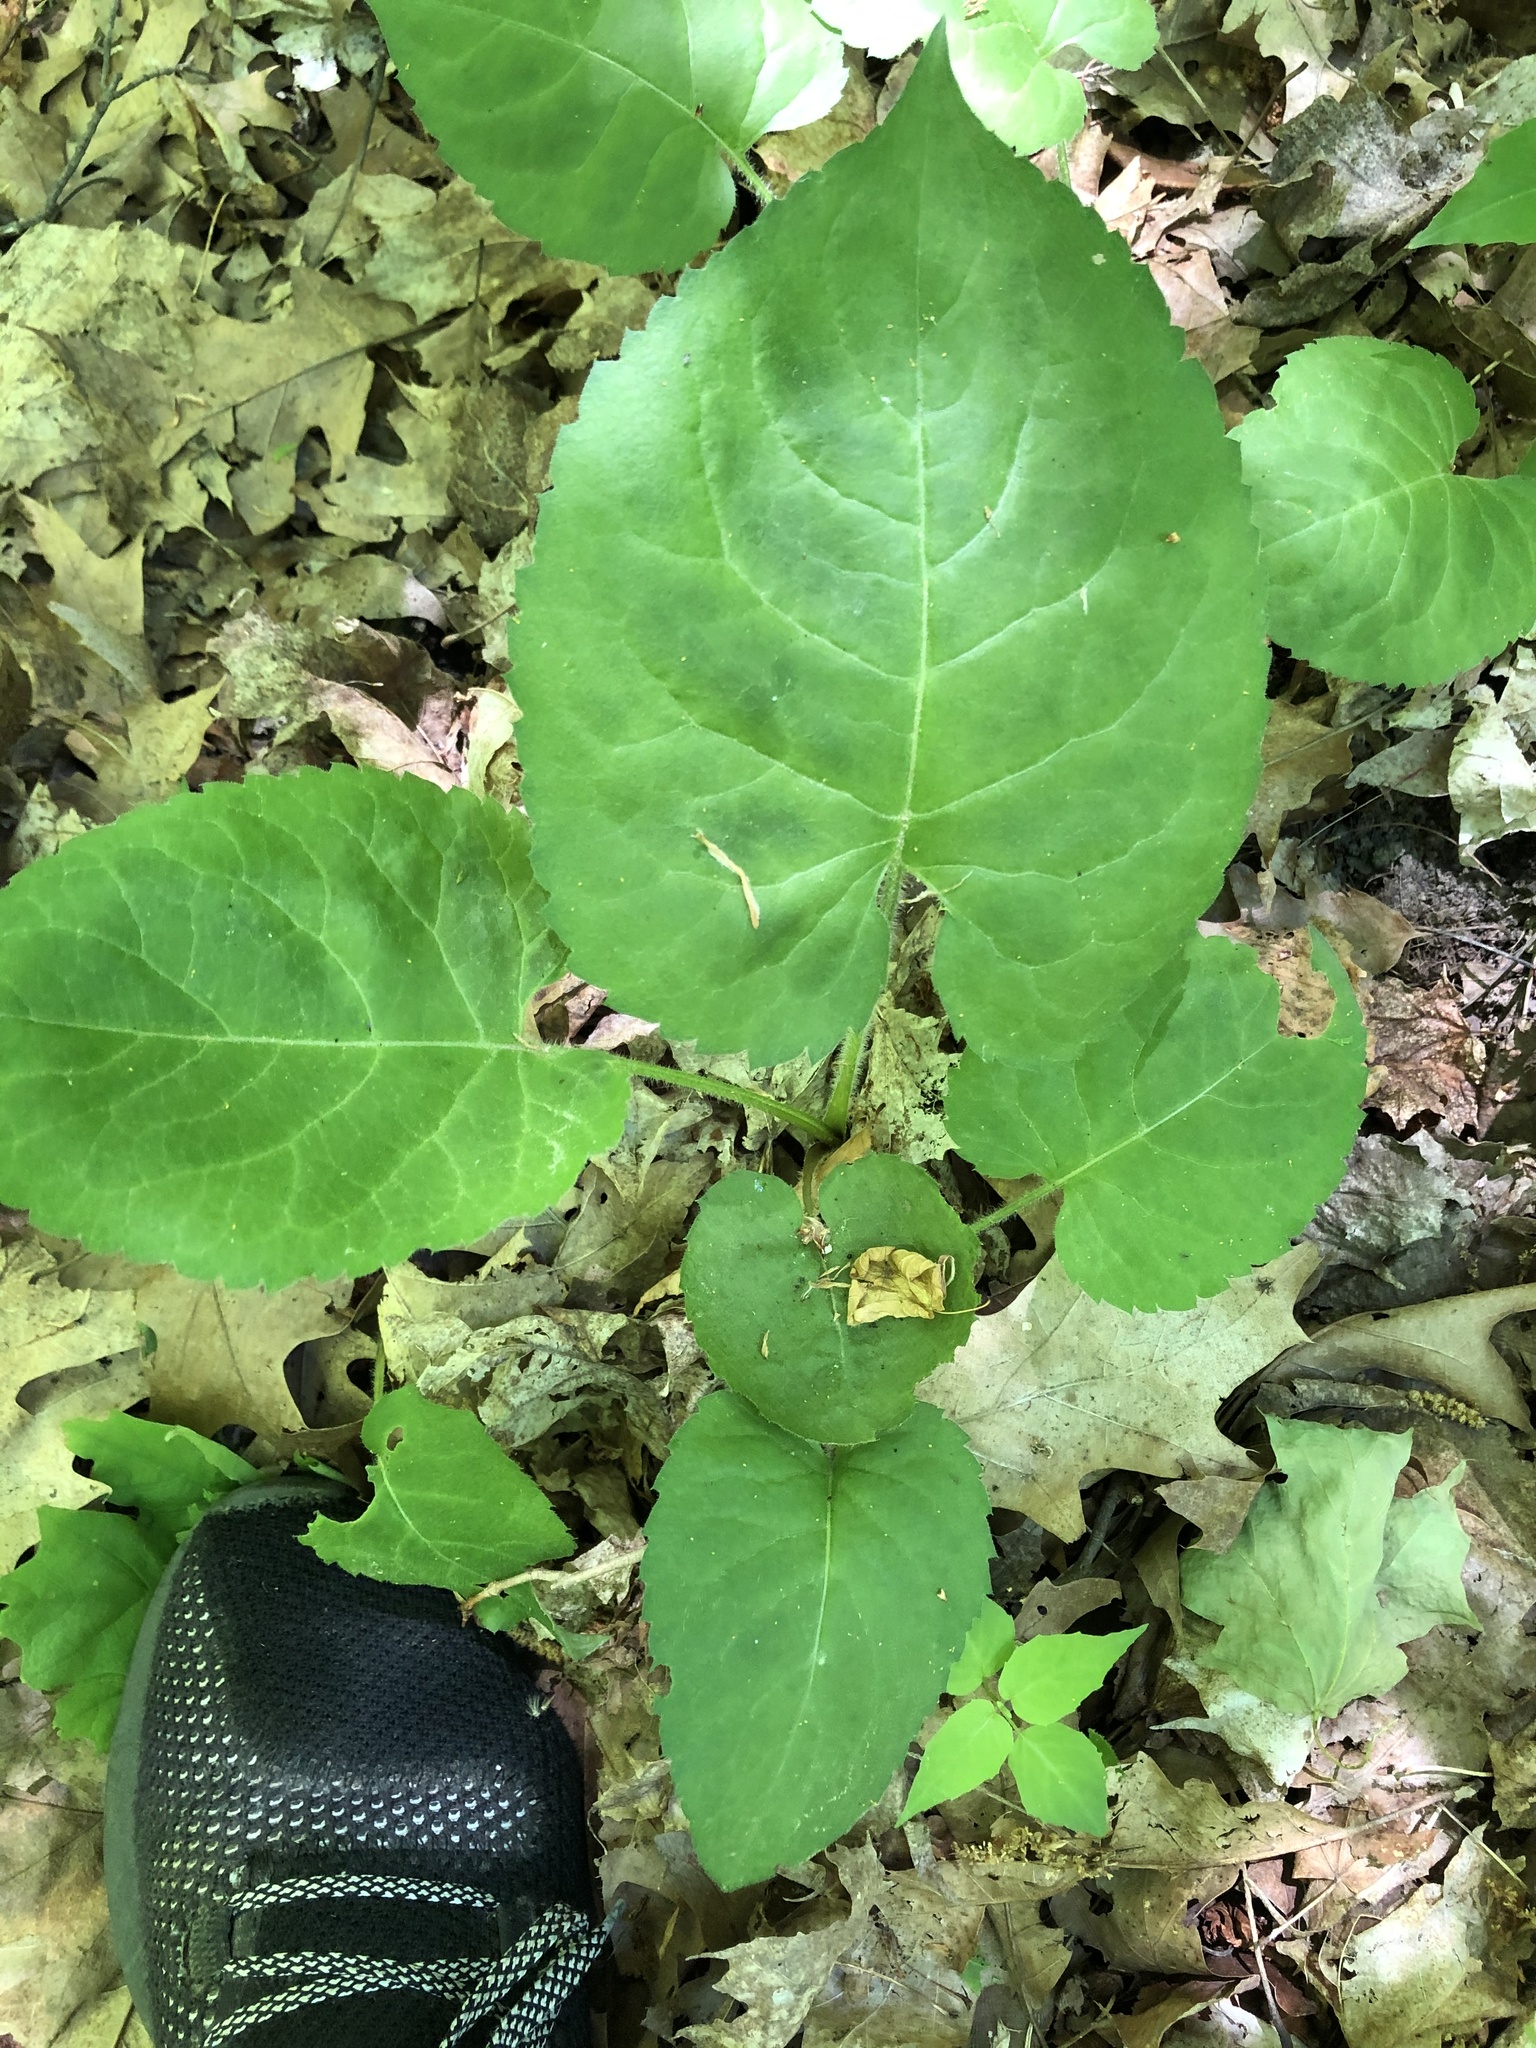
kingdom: Plantae
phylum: Tracheophyta
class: Magnoliopsida
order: Asterales
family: Asteraceae
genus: Eurybia
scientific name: Eurybia macrophylla
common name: Big-leaved aster
